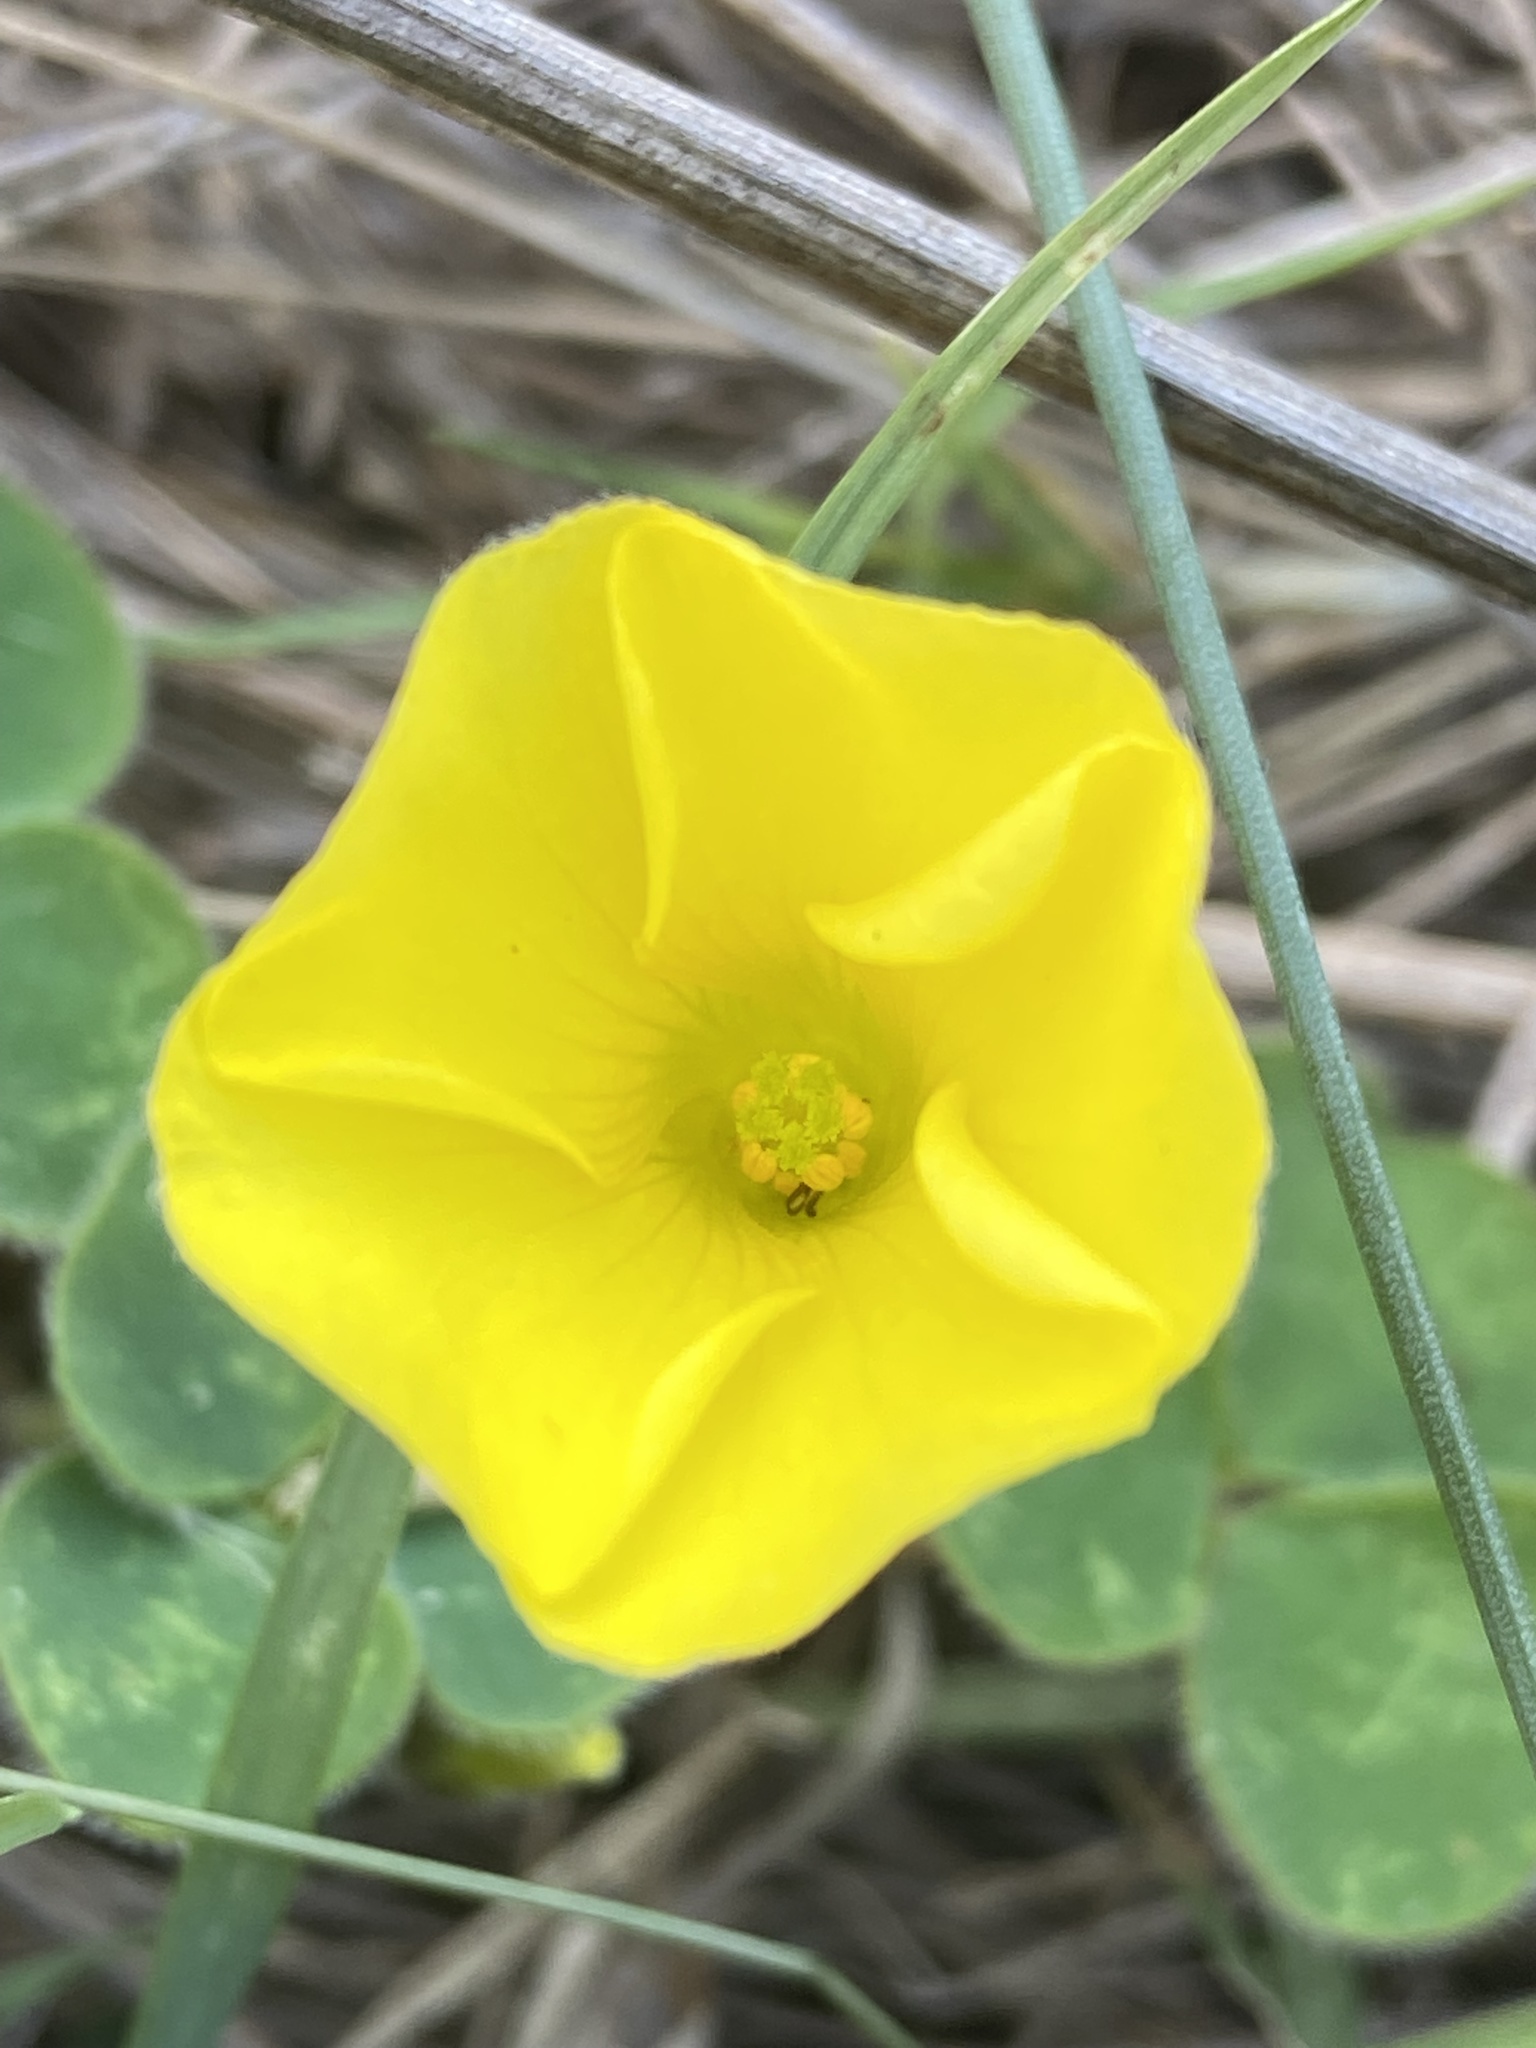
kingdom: Plantae
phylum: Tracheophyta
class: Magnoliopsida
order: Oxalidales
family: Oxalidaceae
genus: Oxalis
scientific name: Oxalis luteola
